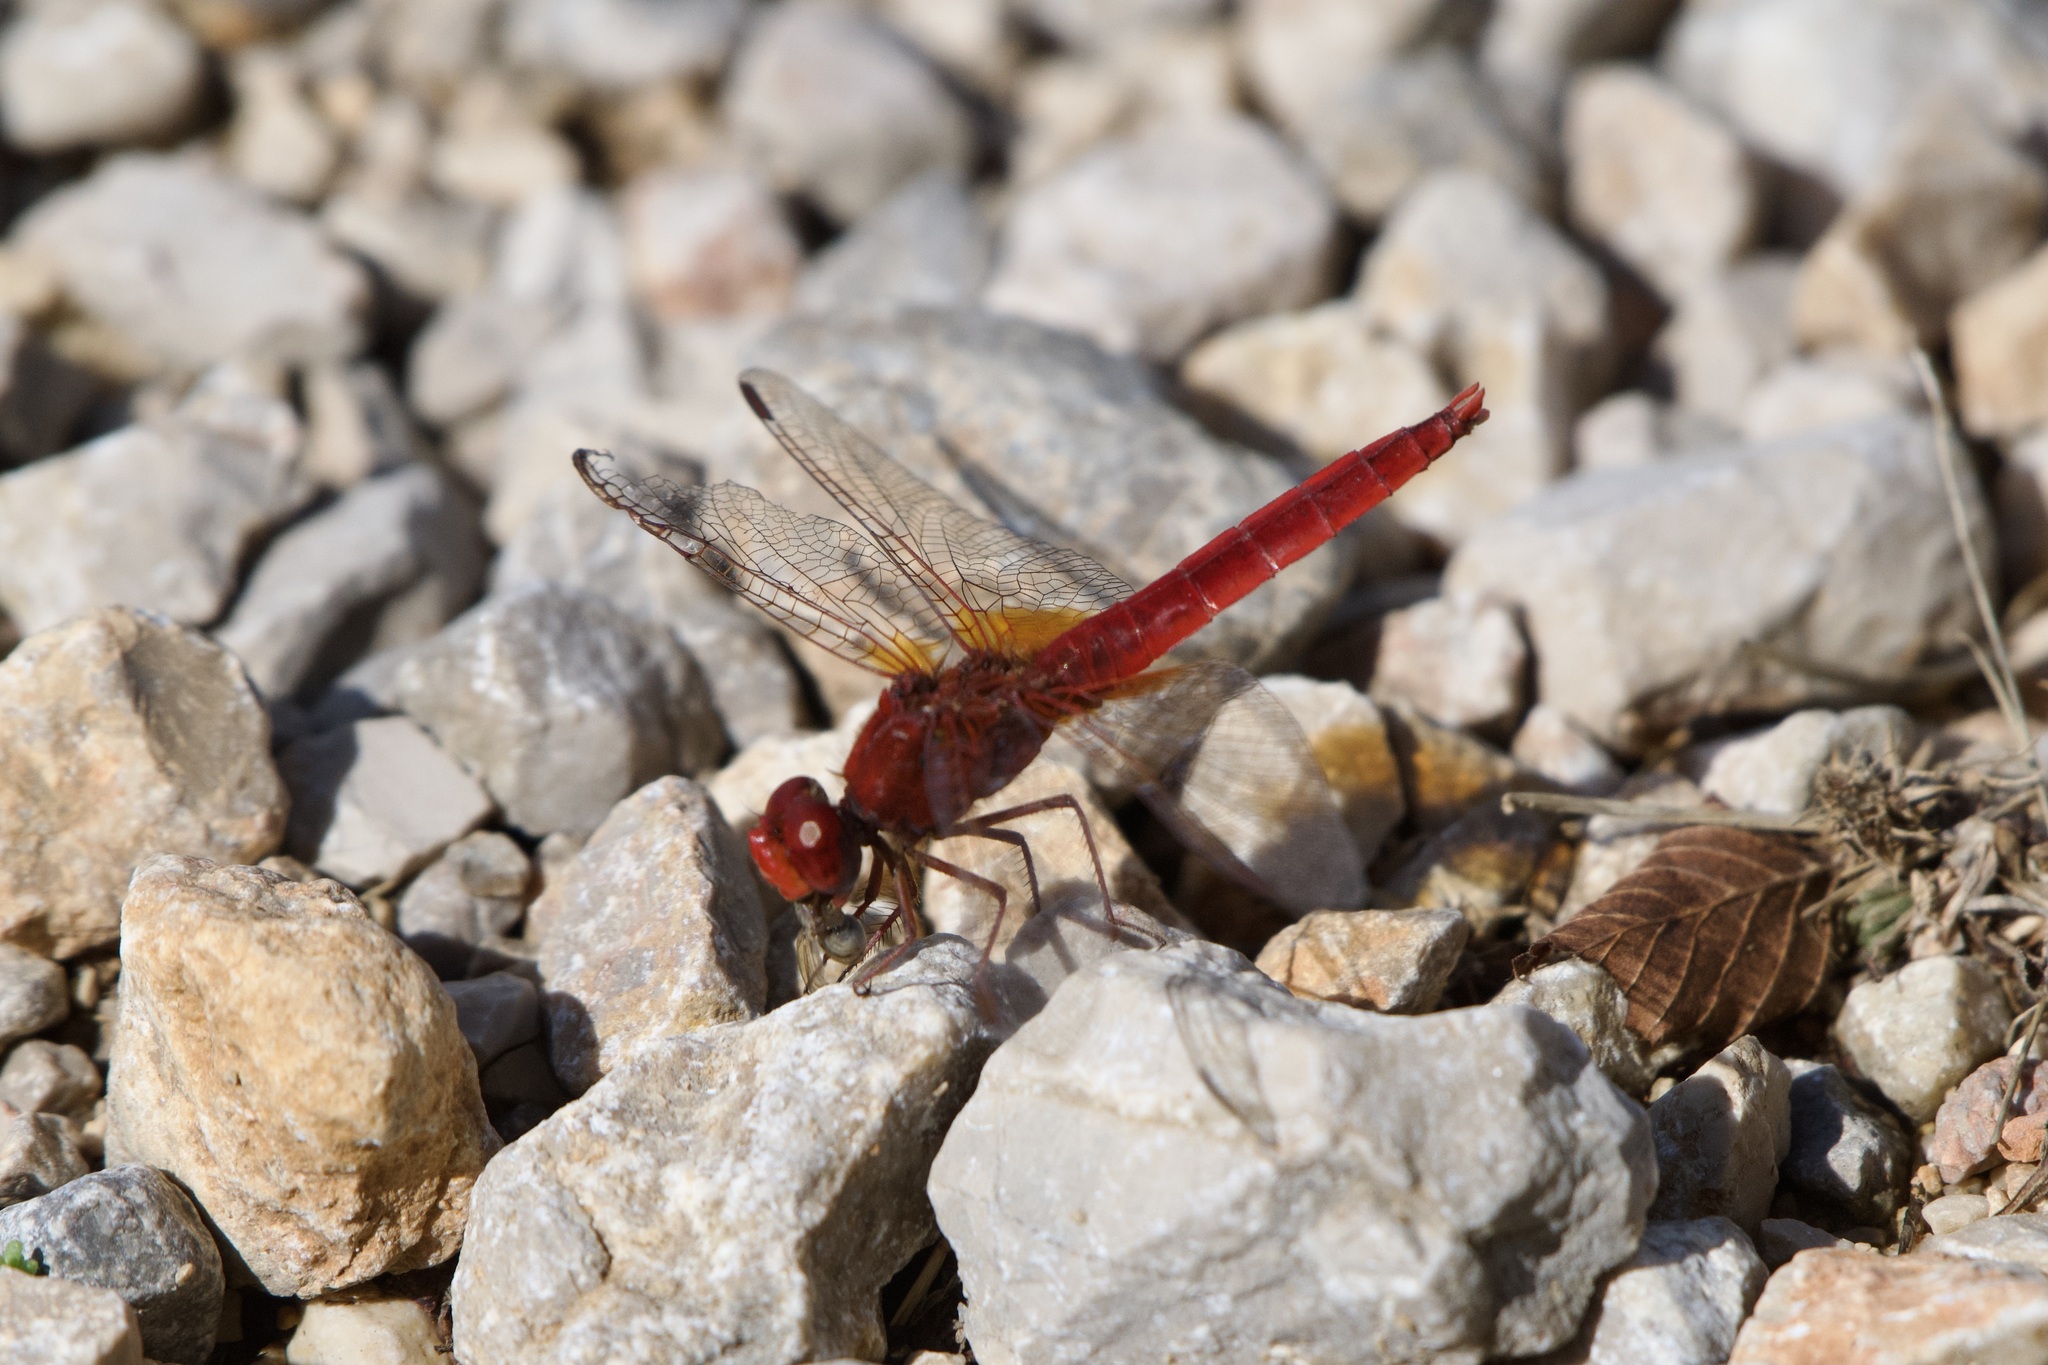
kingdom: Animalia
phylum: Arthropoda
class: Insecta
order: Odonata
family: Libellulidae
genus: Crocothemis
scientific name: Crocothemis erythraea
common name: Scarlet dragonfly
